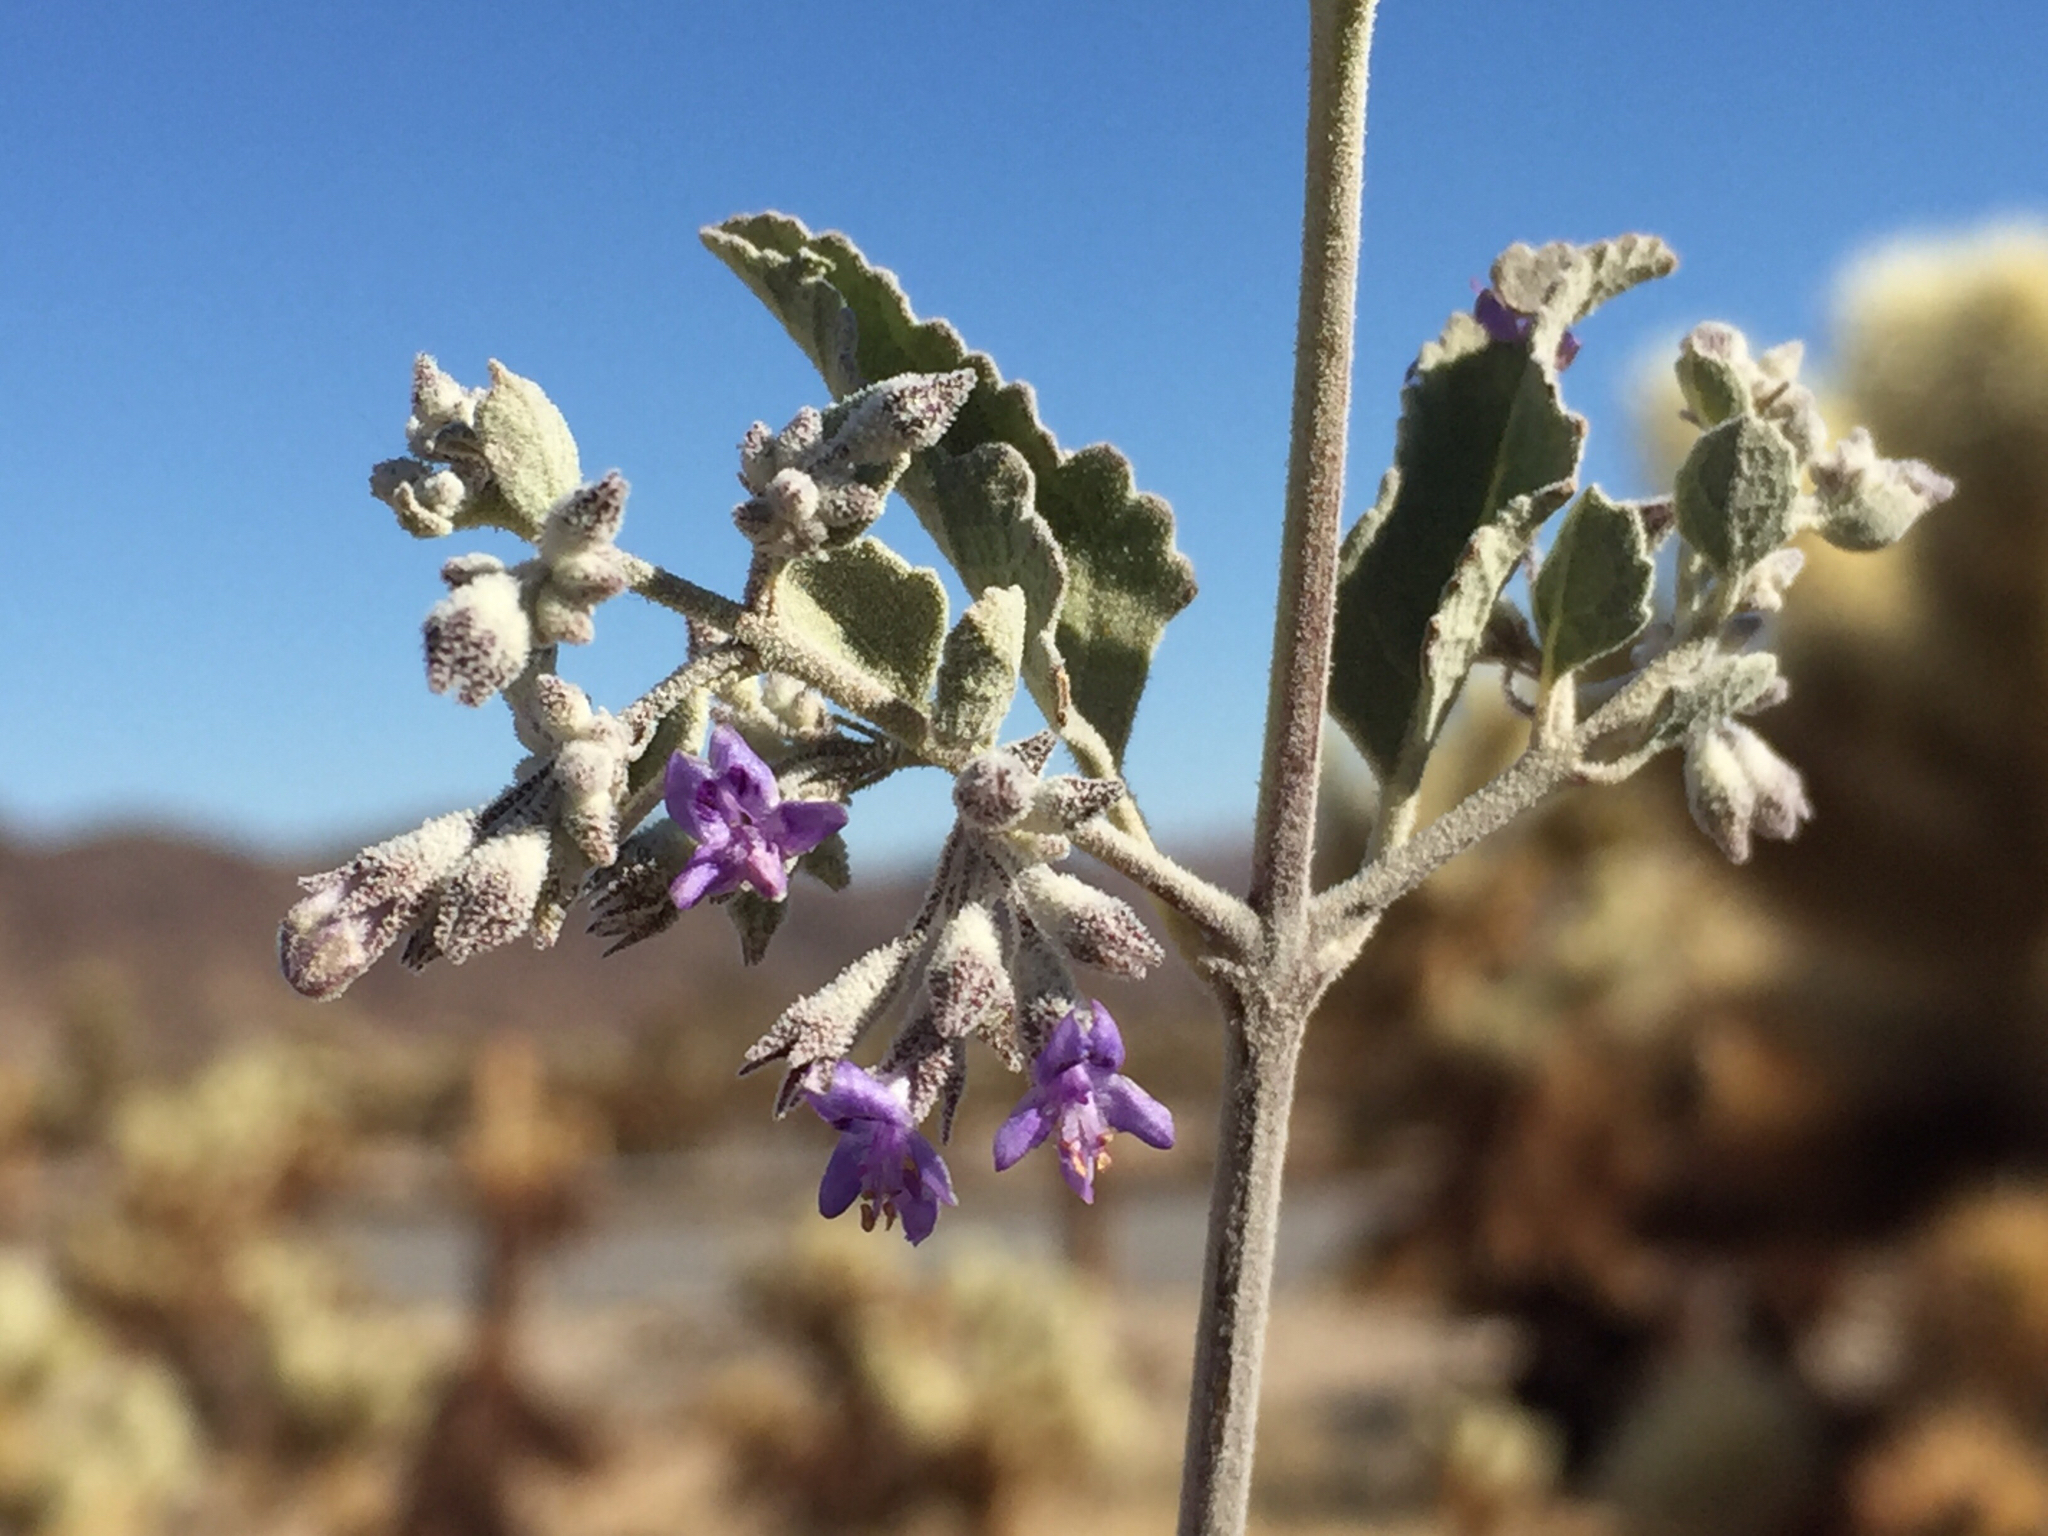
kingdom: Plantae
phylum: Tracheophyta
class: Magnoliopsida
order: Lamiales
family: Lamiaceae
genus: Condea
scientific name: Condea emoryi
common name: Chia
